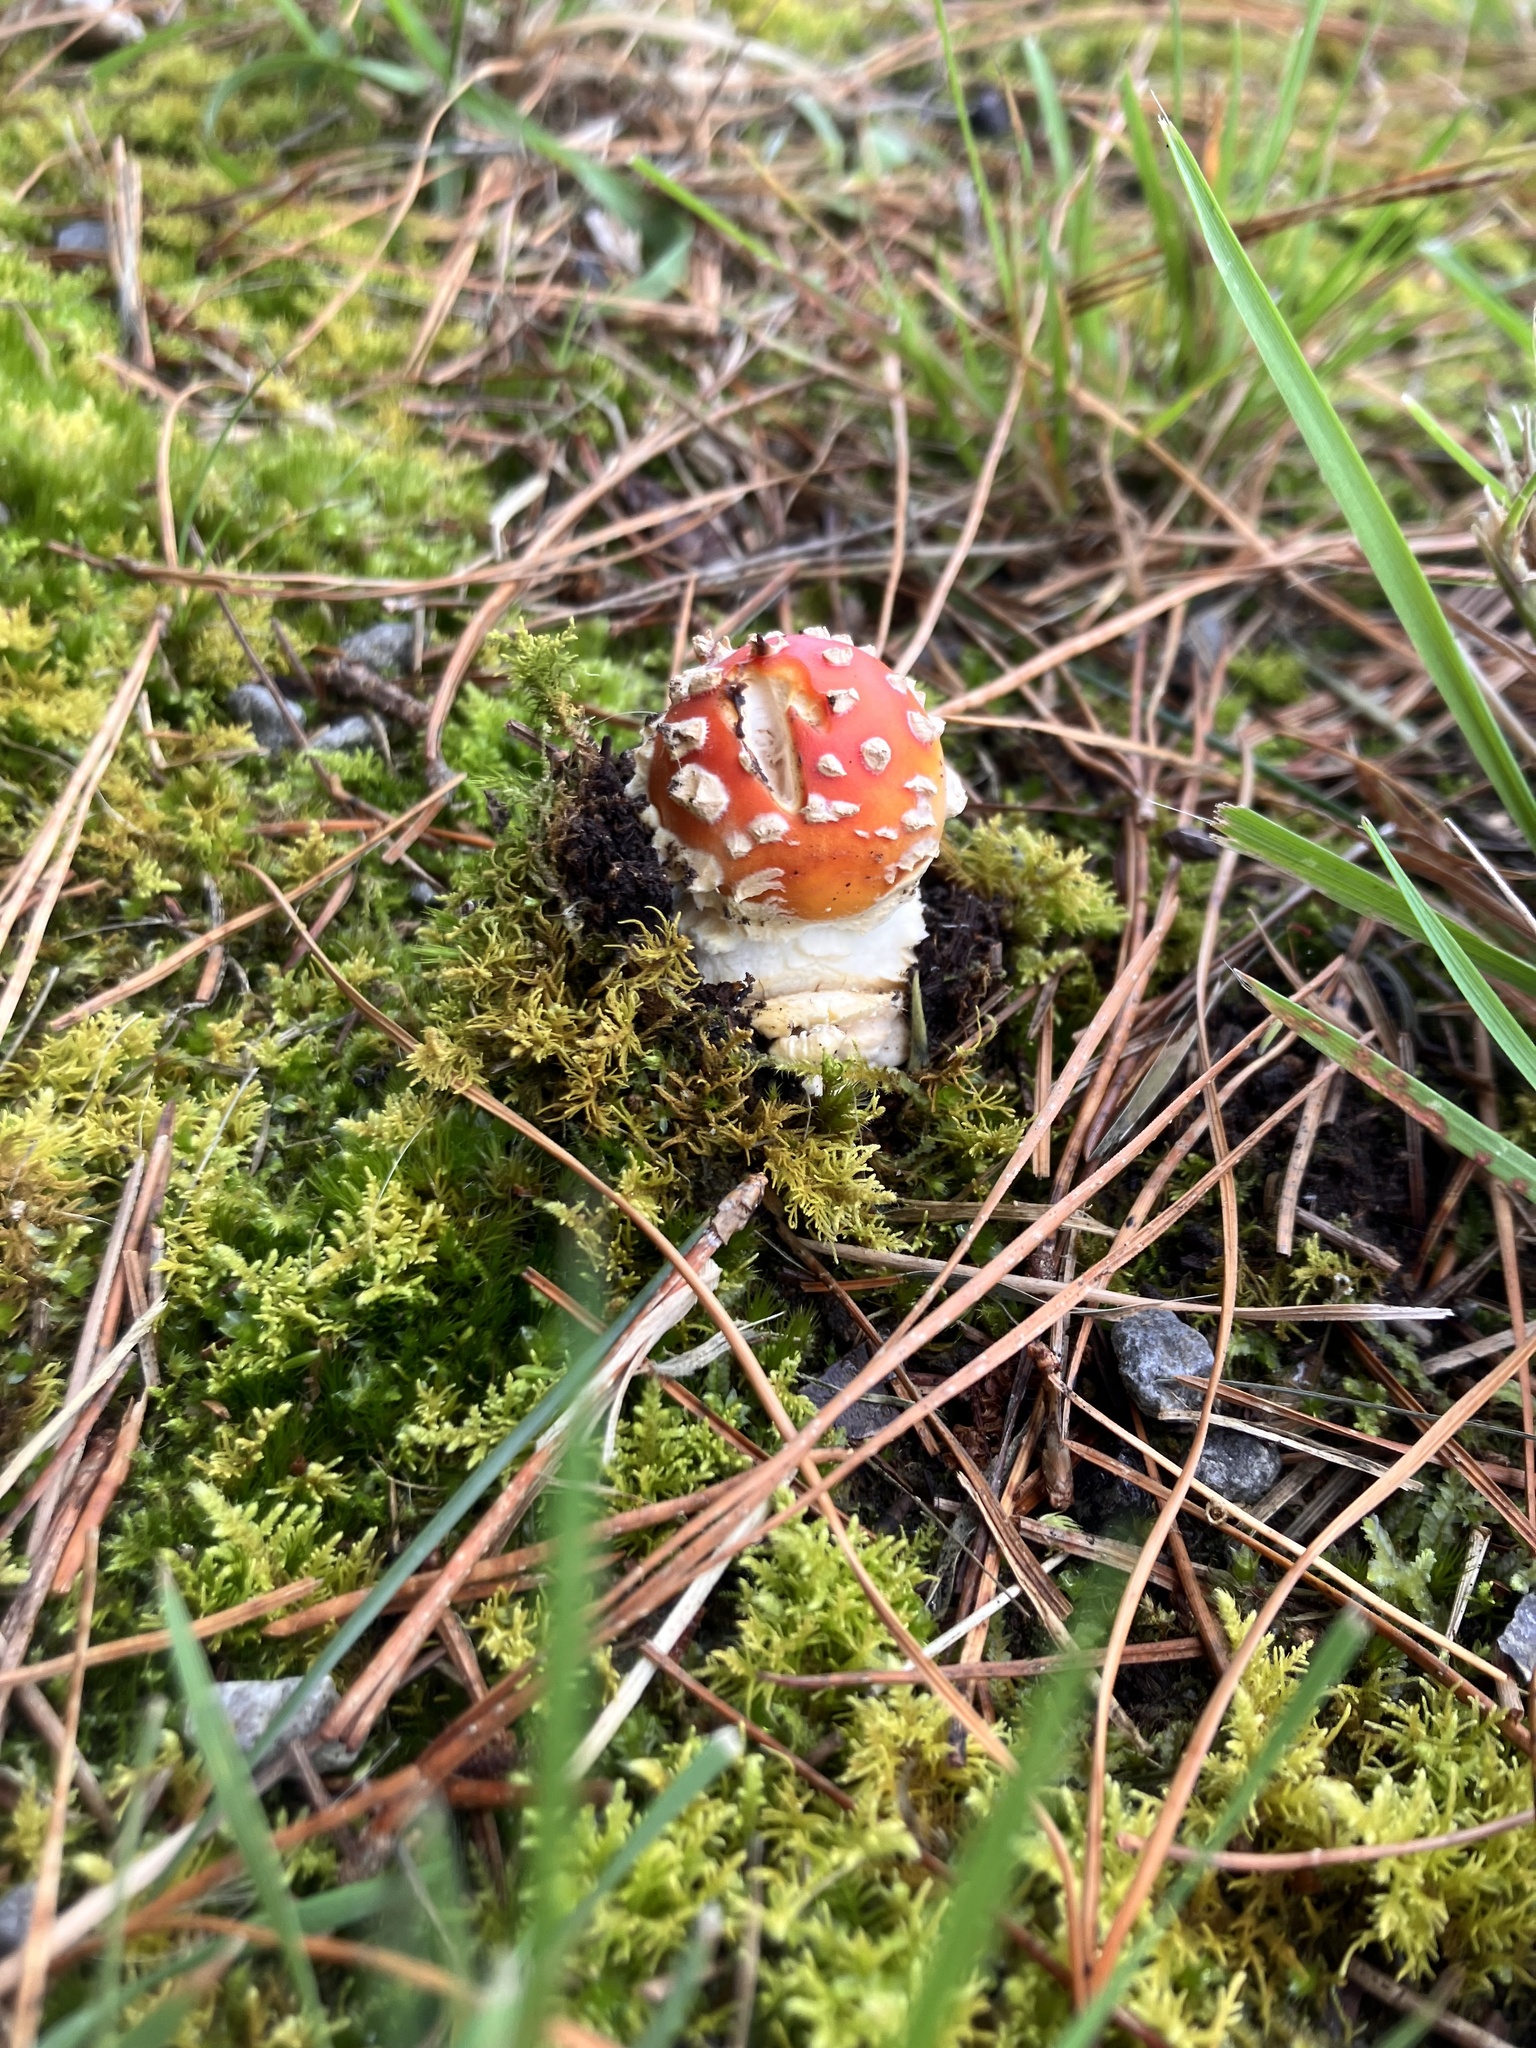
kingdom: Fungi
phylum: Basidiomycota
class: Agaricomycetes
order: Agaricales
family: Amanitaceae
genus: Amanita
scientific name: Amanita muscaria
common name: Fly agaric
